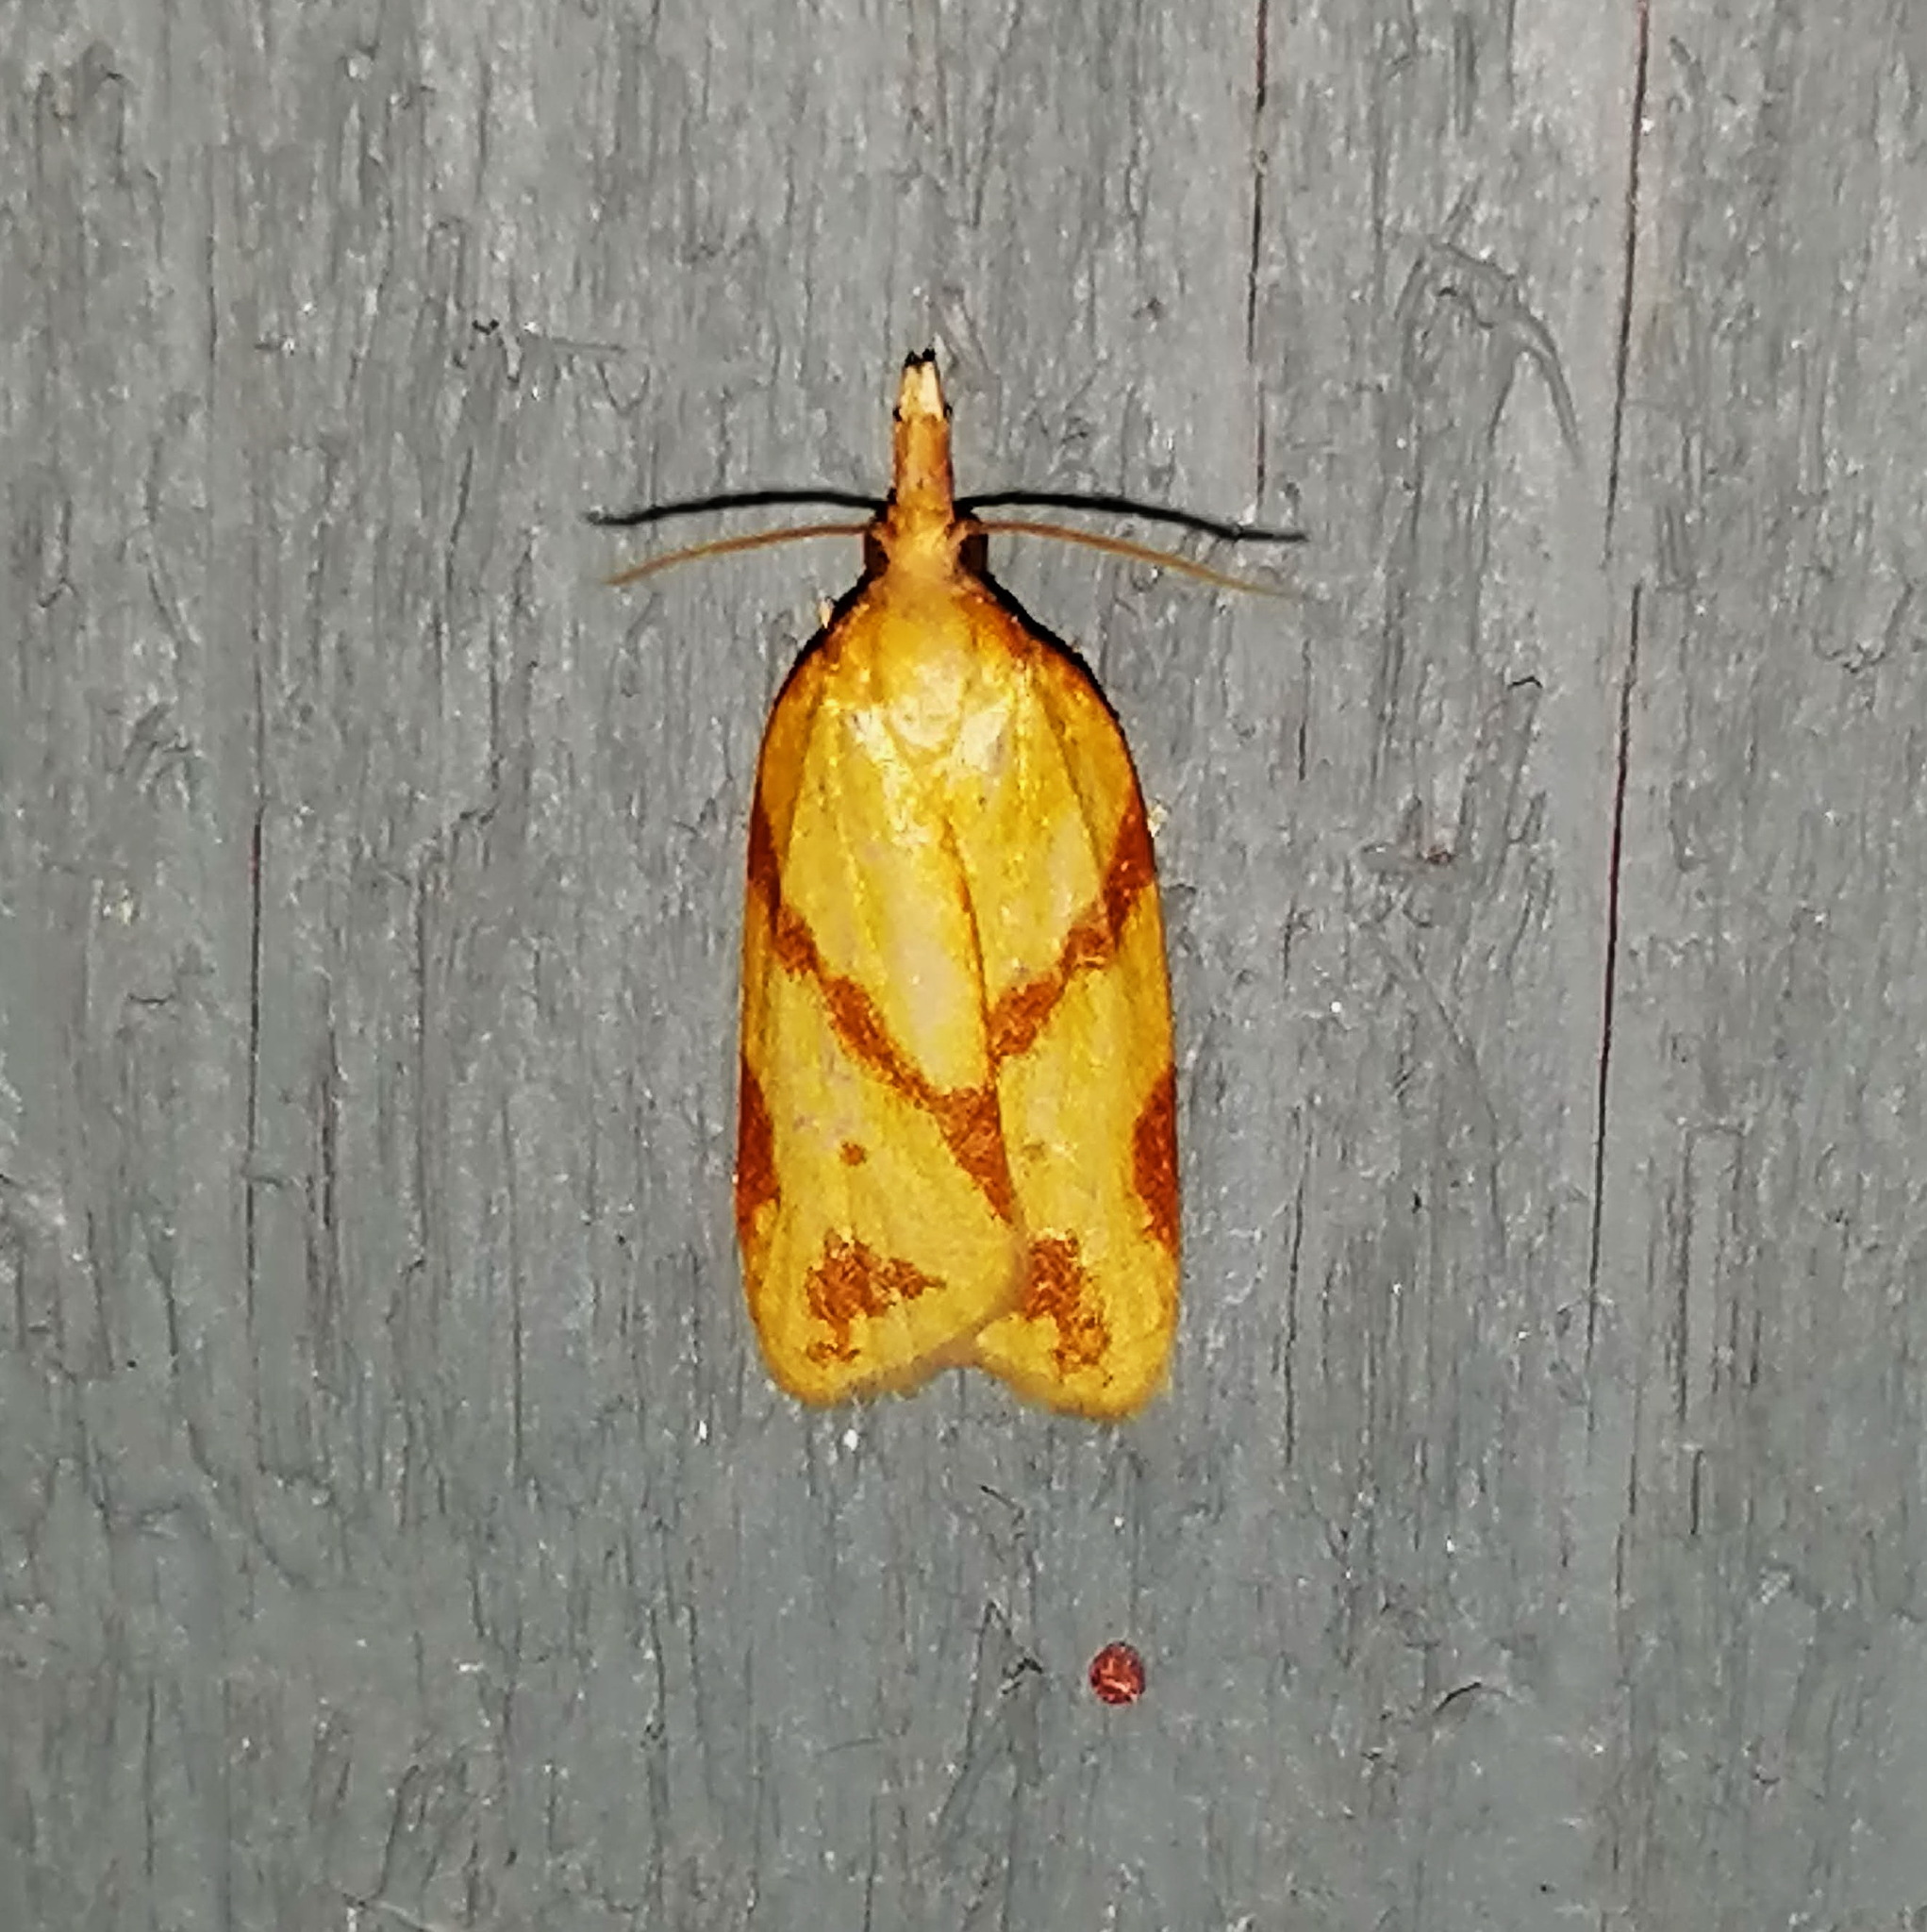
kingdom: Animalia
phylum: Arthropoda
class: Insecta
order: Lepidoptera
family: Tortricidae
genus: Sparganothis
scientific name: Sparganothis unifasciana
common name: One-lined sparganothis moth
